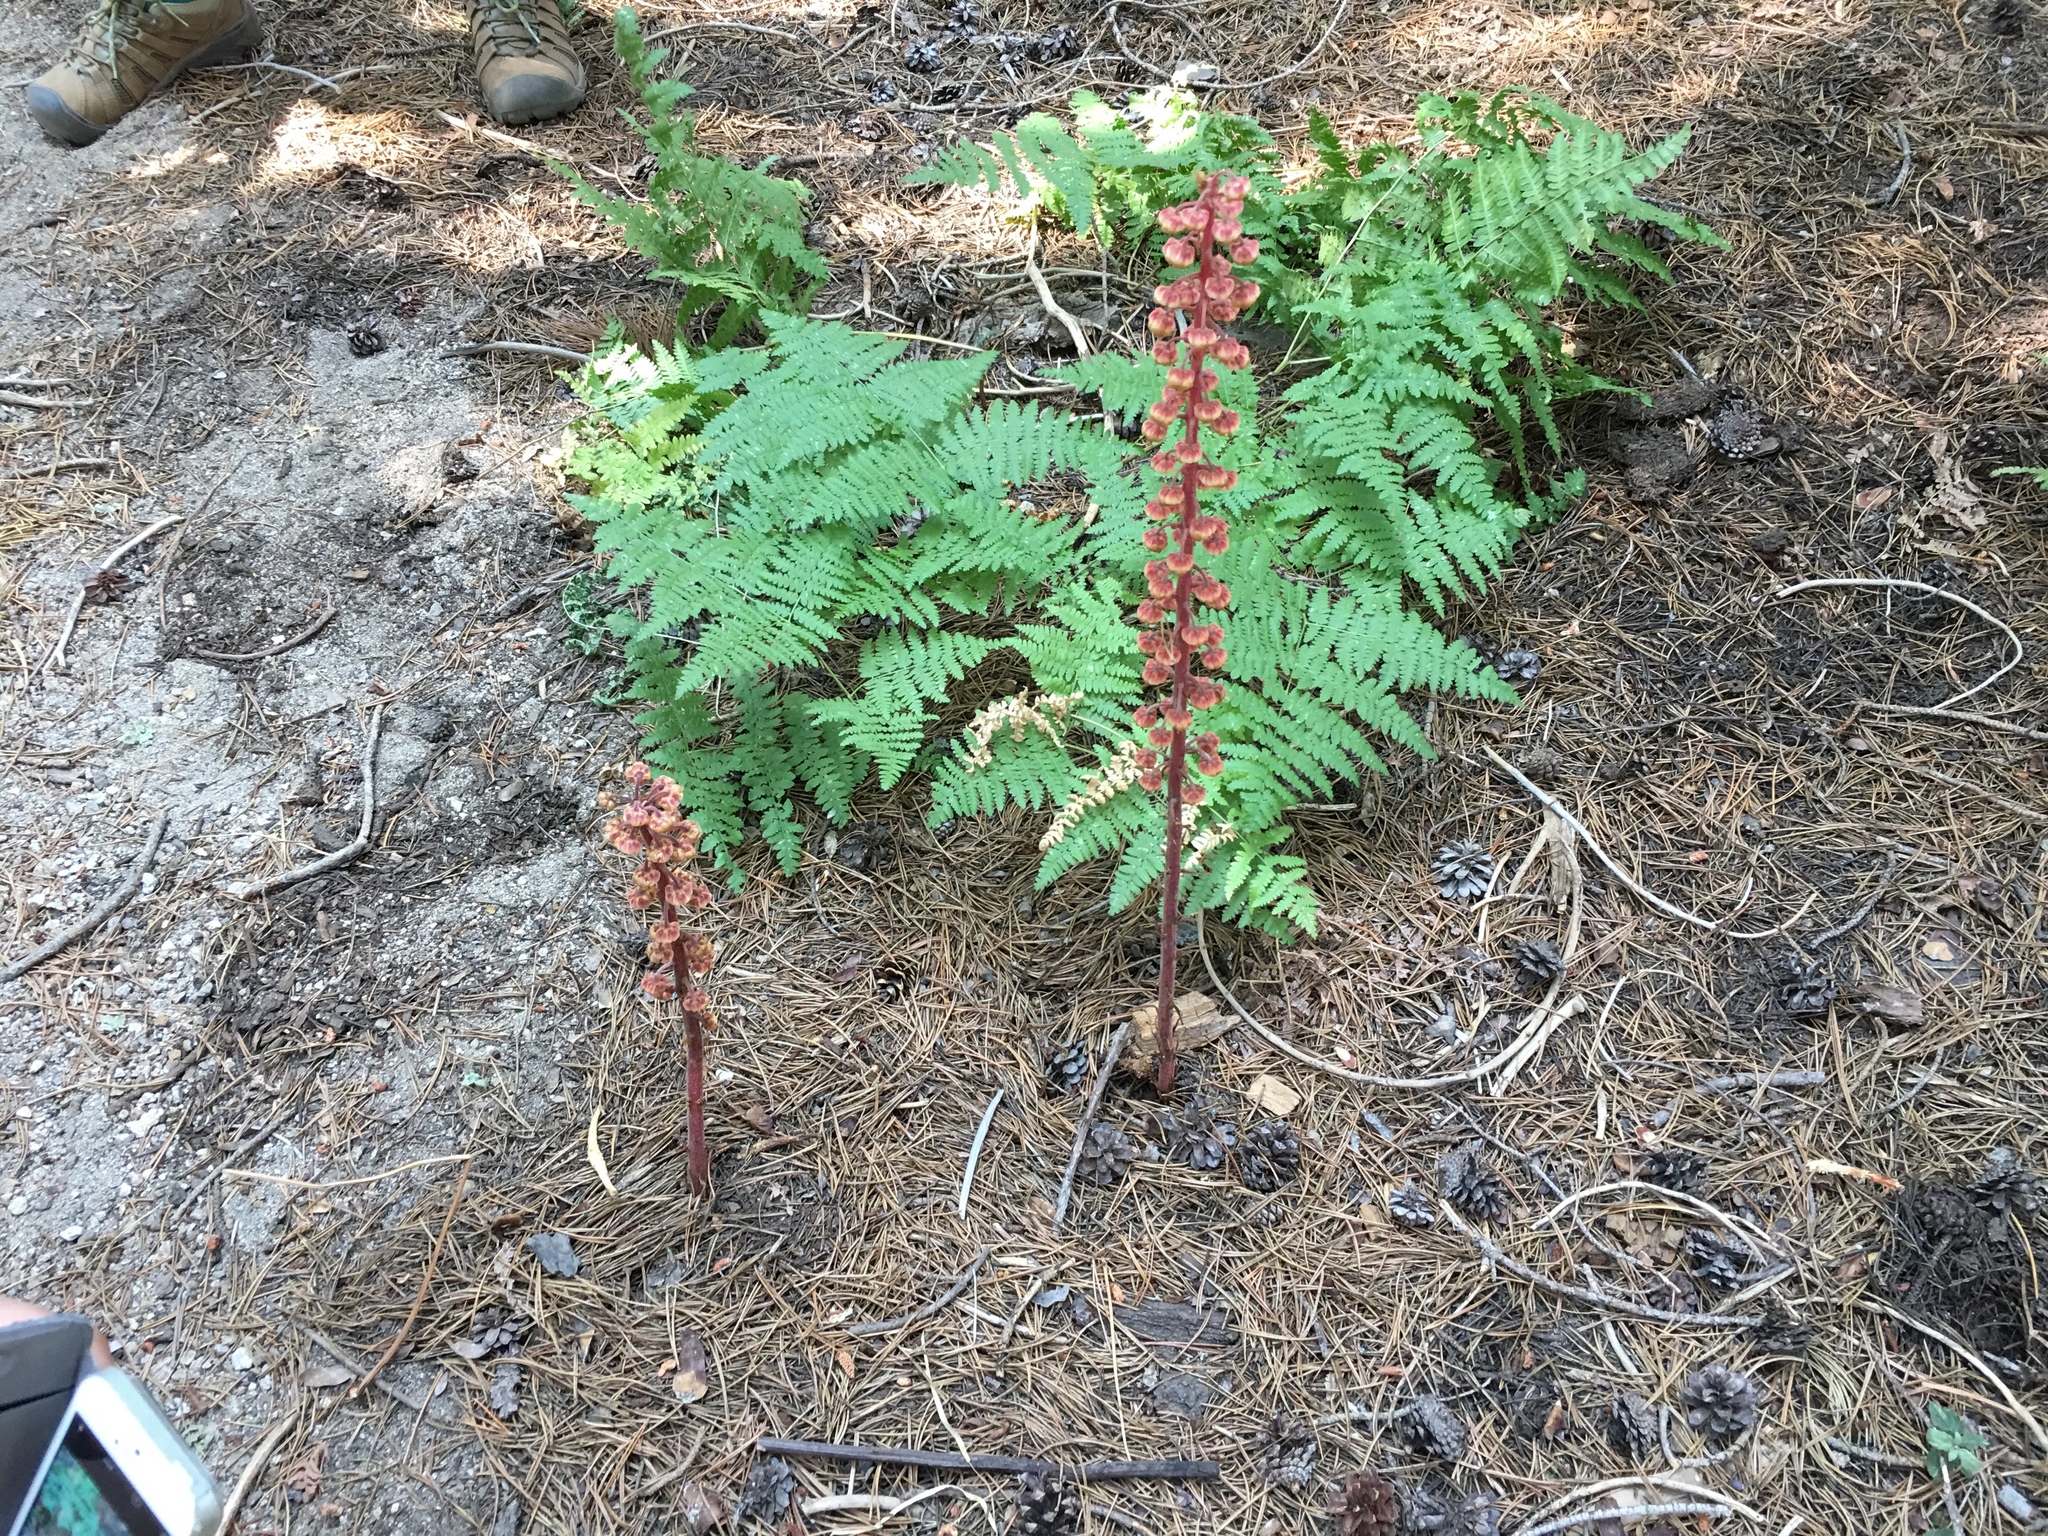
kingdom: Plantae
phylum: Tracheophyta
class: Magnoliopsida
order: Ericales
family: Ericaceae
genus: Pterospora
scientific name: Pterospora andromedea
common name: Giant bird's-nest
